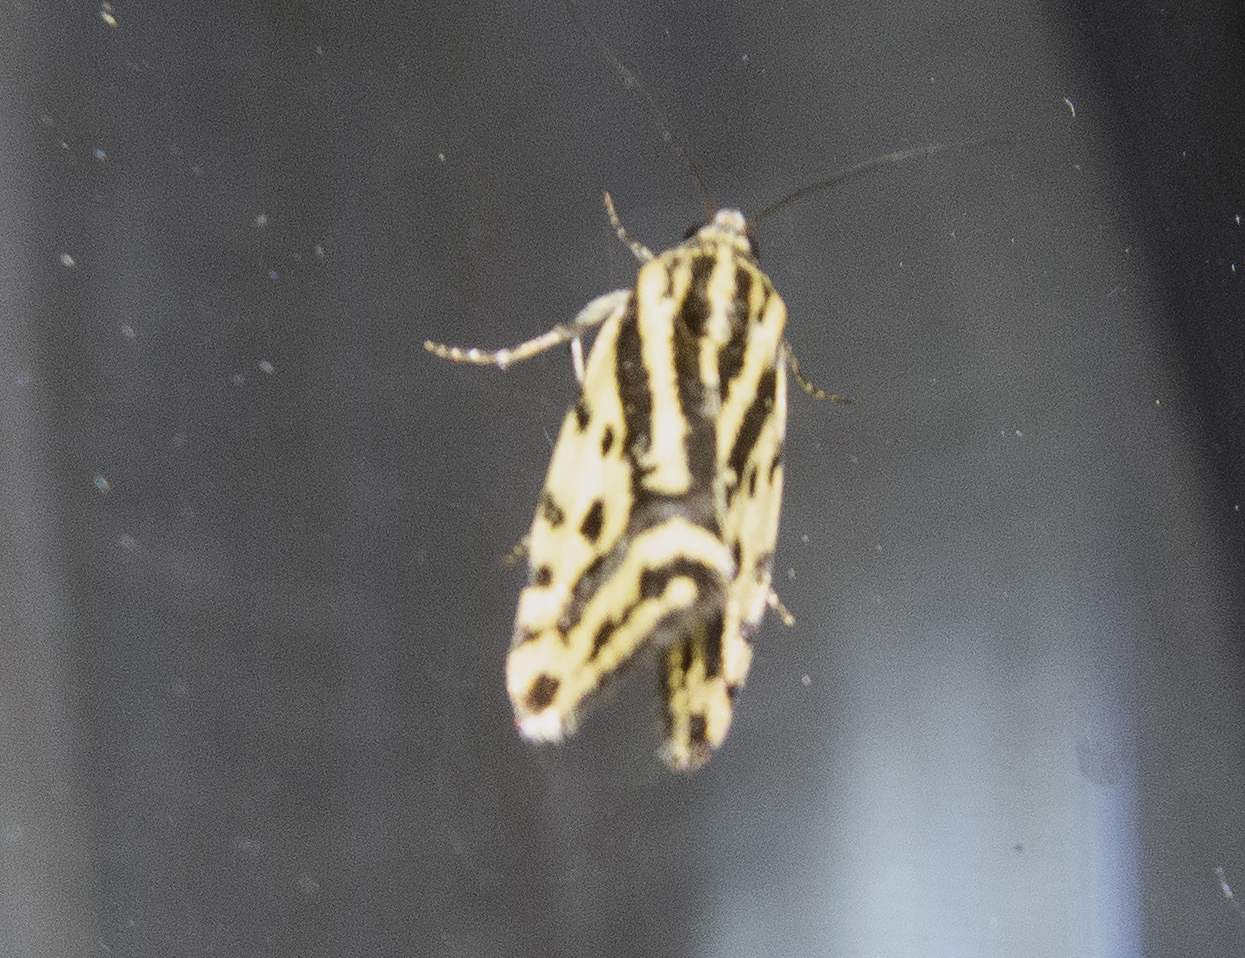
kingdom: Animalia
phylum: Arthropoda
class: Insecta
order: Lepidoptera
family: Noctuidae
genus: Acontia
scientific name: Acontia trabealis
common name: Spotted sulphur
